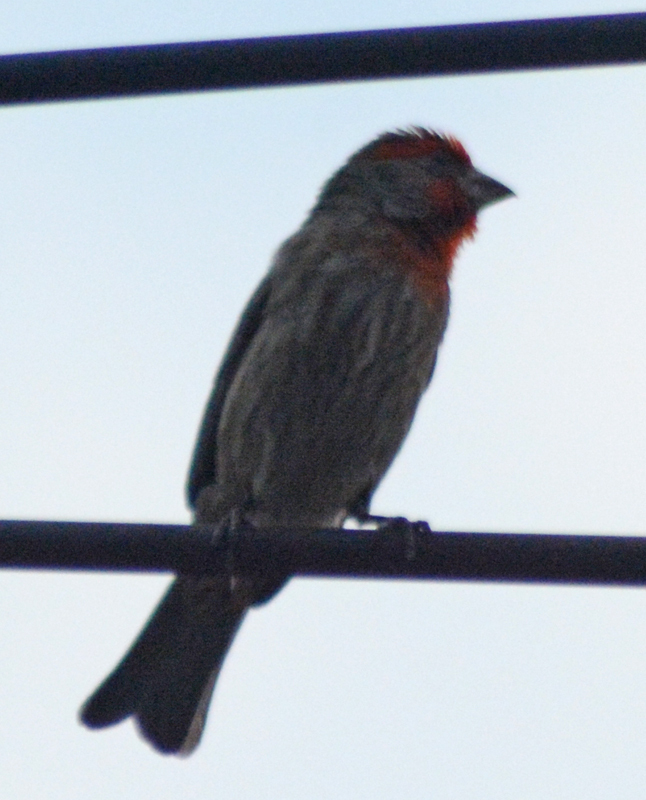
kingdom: Animalia
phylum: Chordata
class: Aves
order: Passeriformes
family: Fringillidae
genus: Haemorhous
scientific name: Haemorhous mexicanus
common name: House finch
